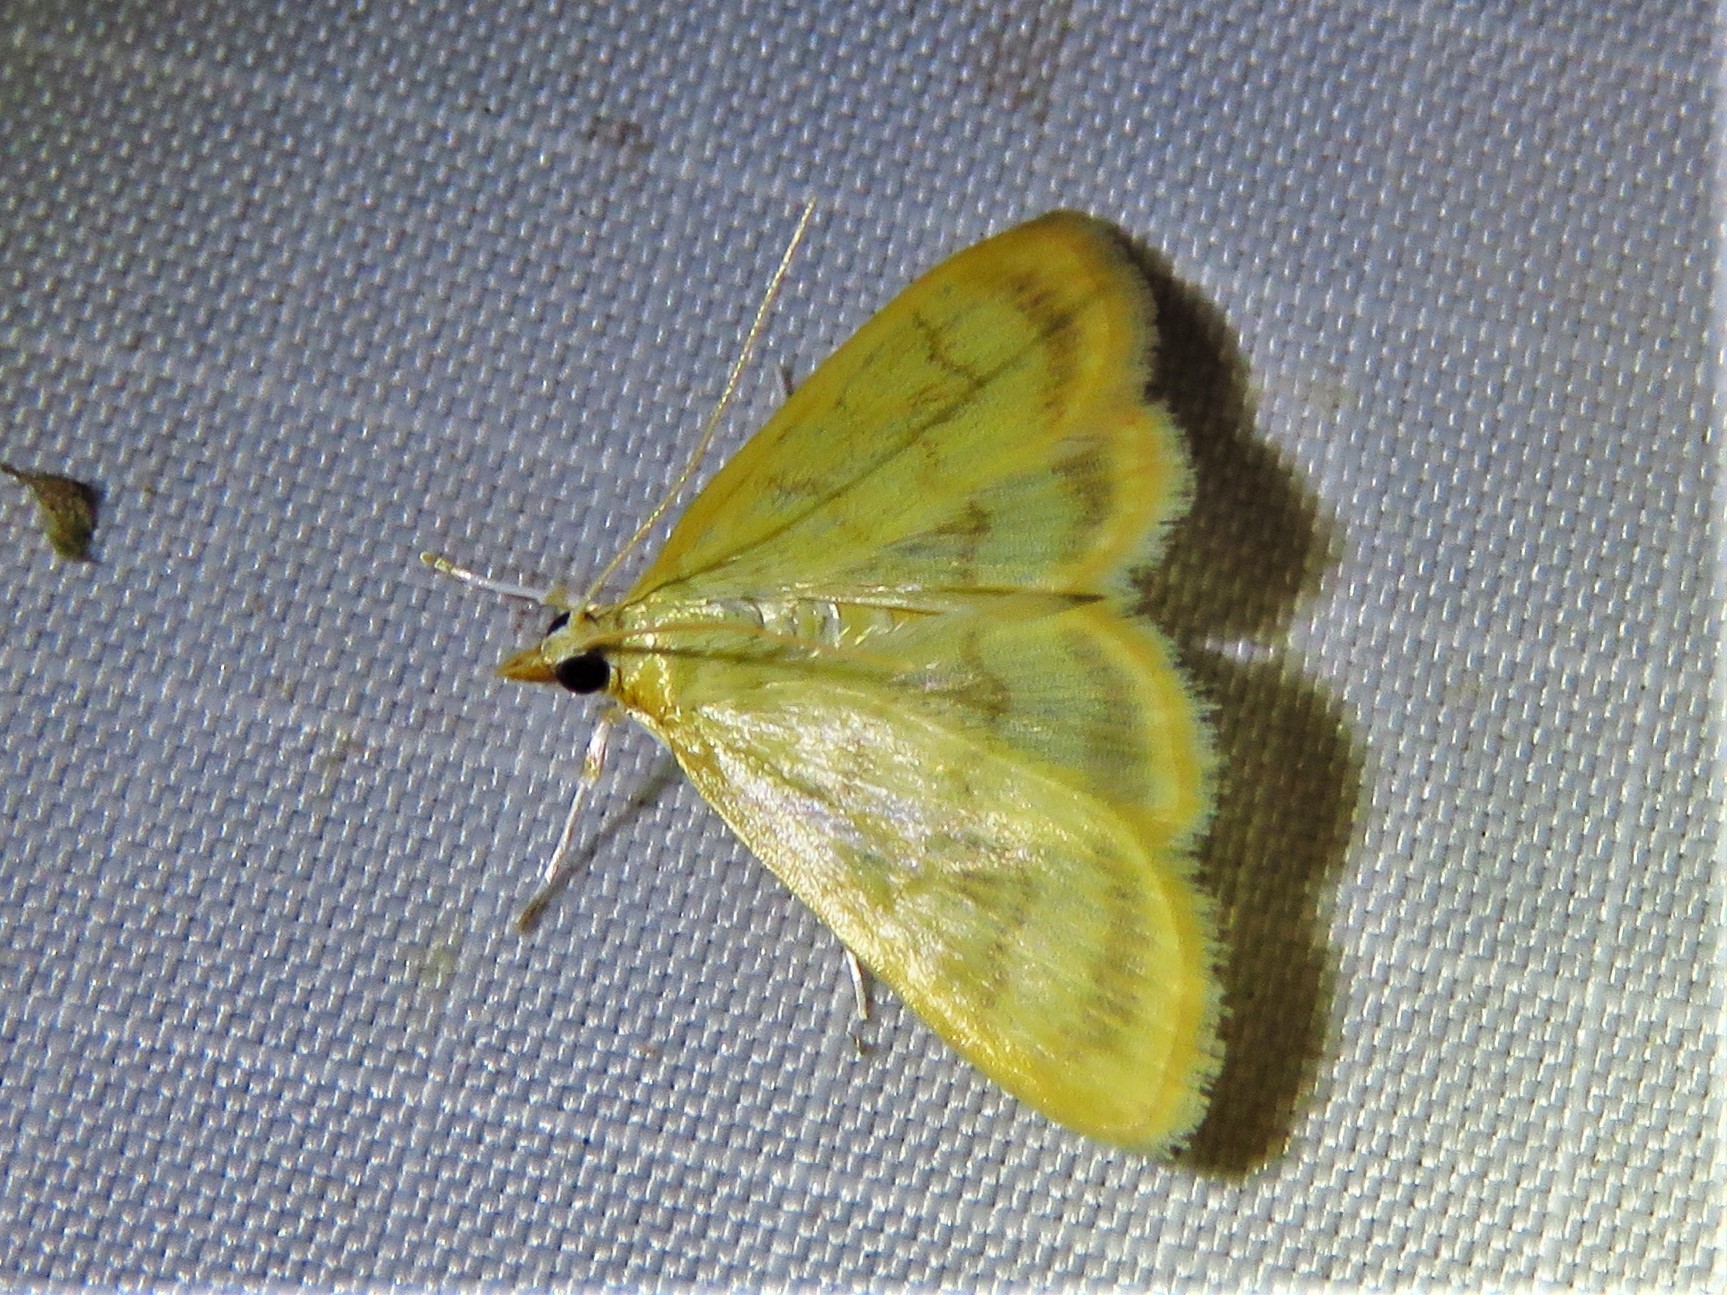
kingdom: Animalia
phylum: Arthropoda
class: Insecta
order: Lepidoptera
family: Crambidae
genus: Crocidophora
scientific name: Crocidophora tuberculalis
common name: Pale-winged crocidiphora moth
